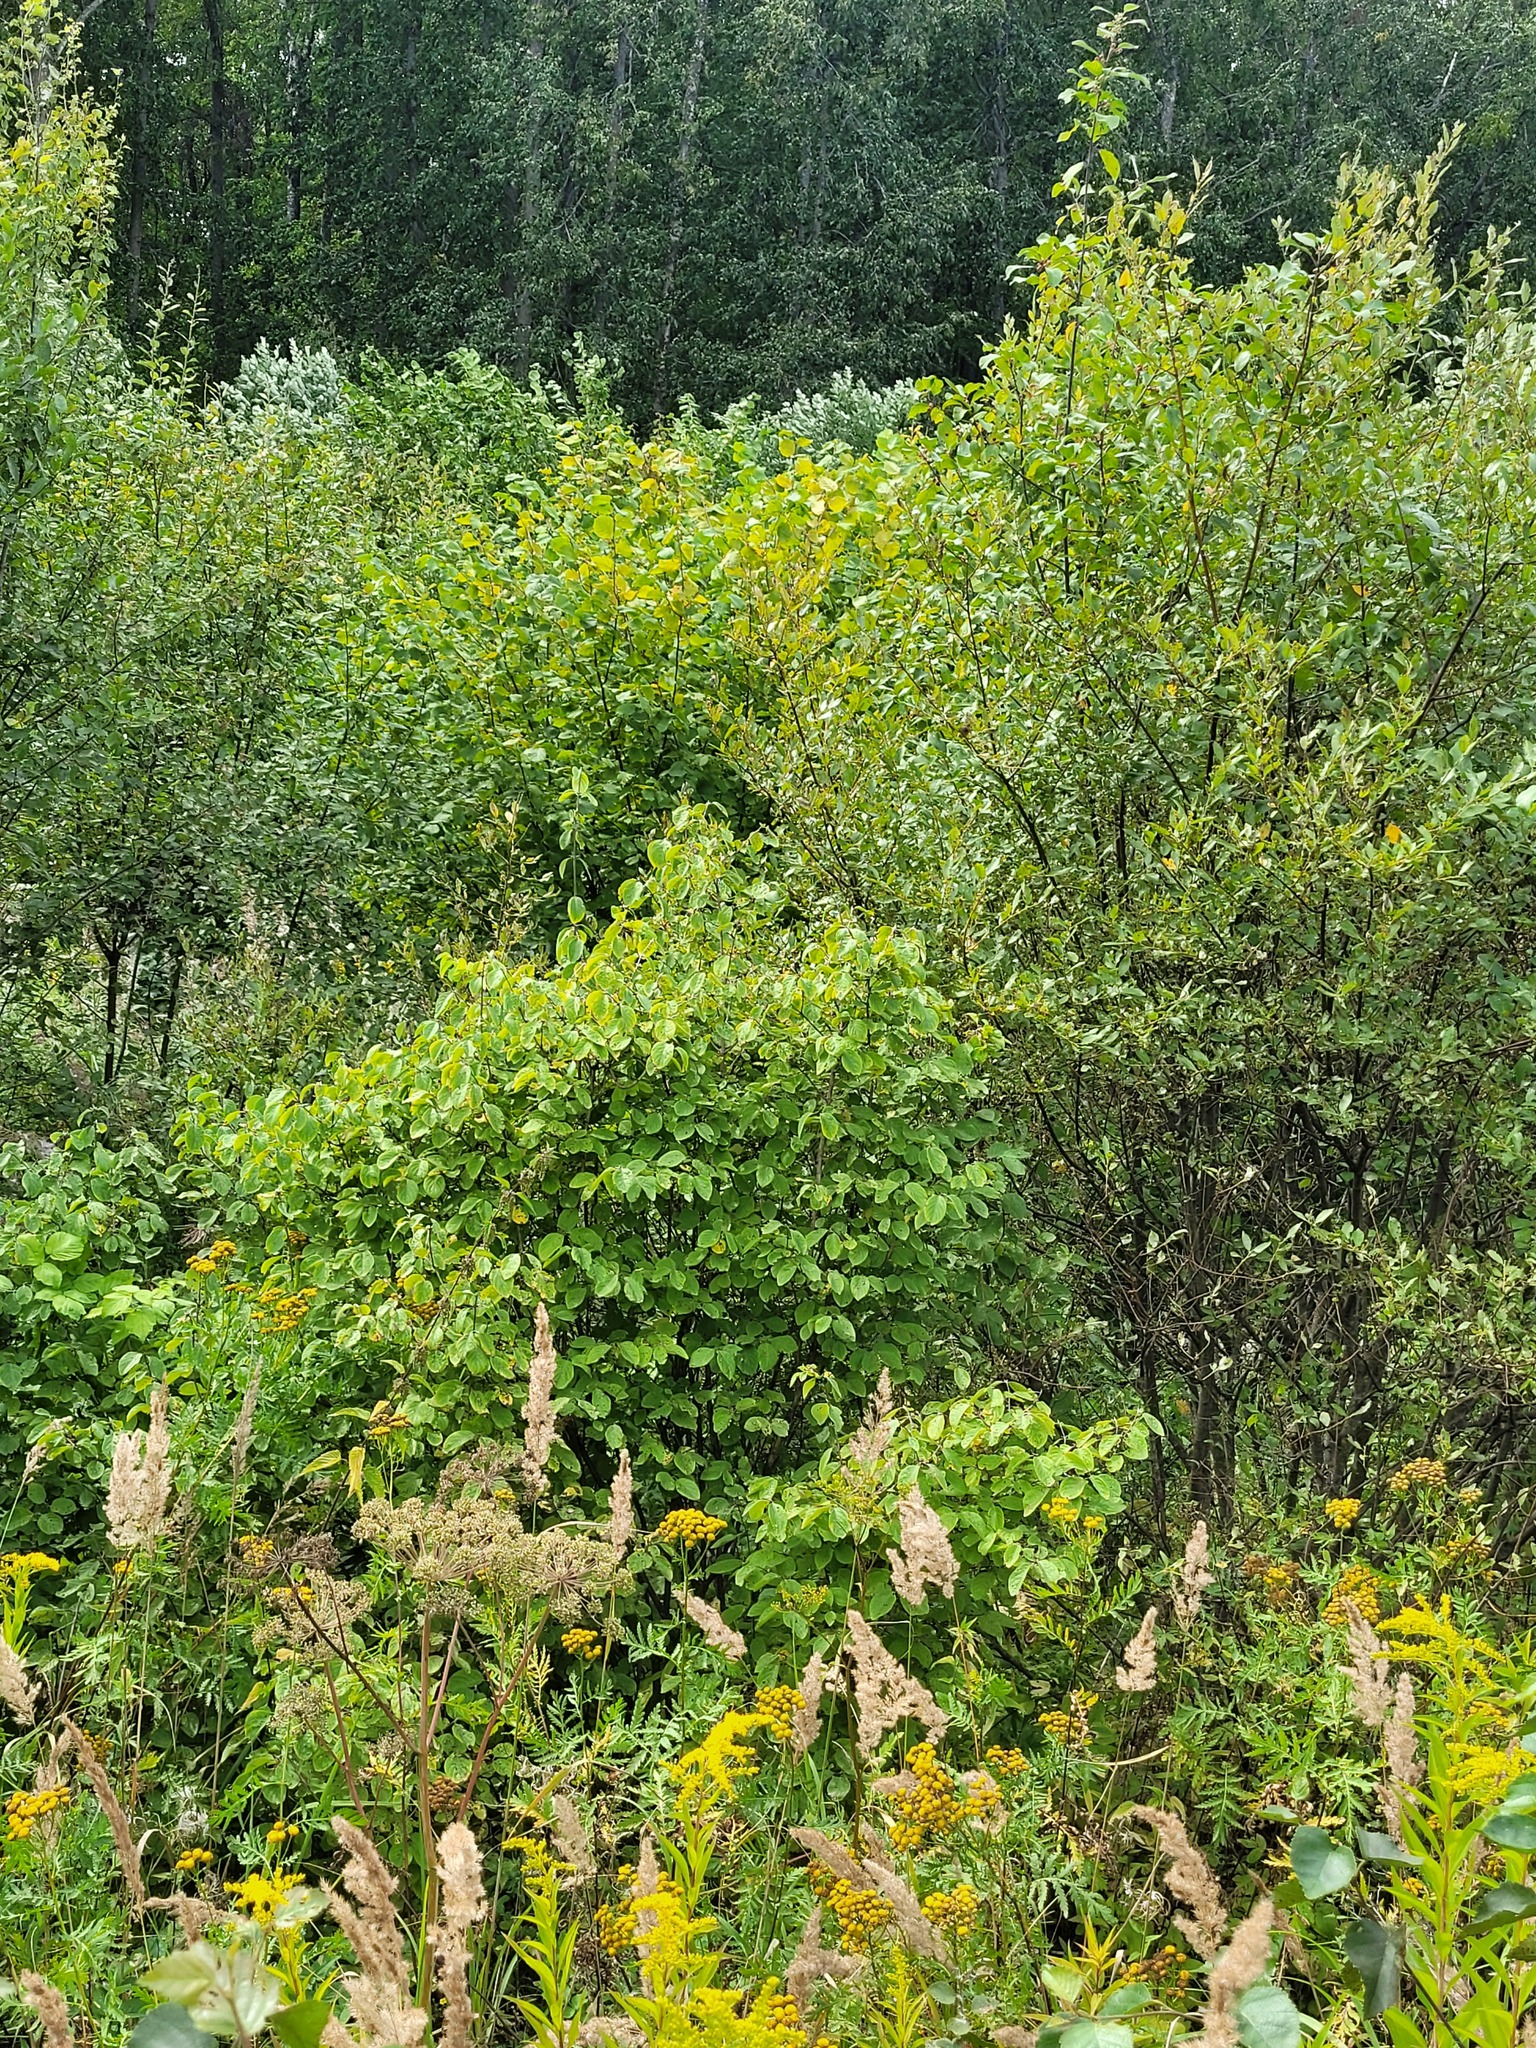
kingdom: Plantae
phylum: Tracheophyta
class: Magnoliopsida
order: Dipsacales
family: Caprifoliaceae
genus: Lonicera
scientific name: Lonicera xylosteum
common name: Fly honeysuckle
